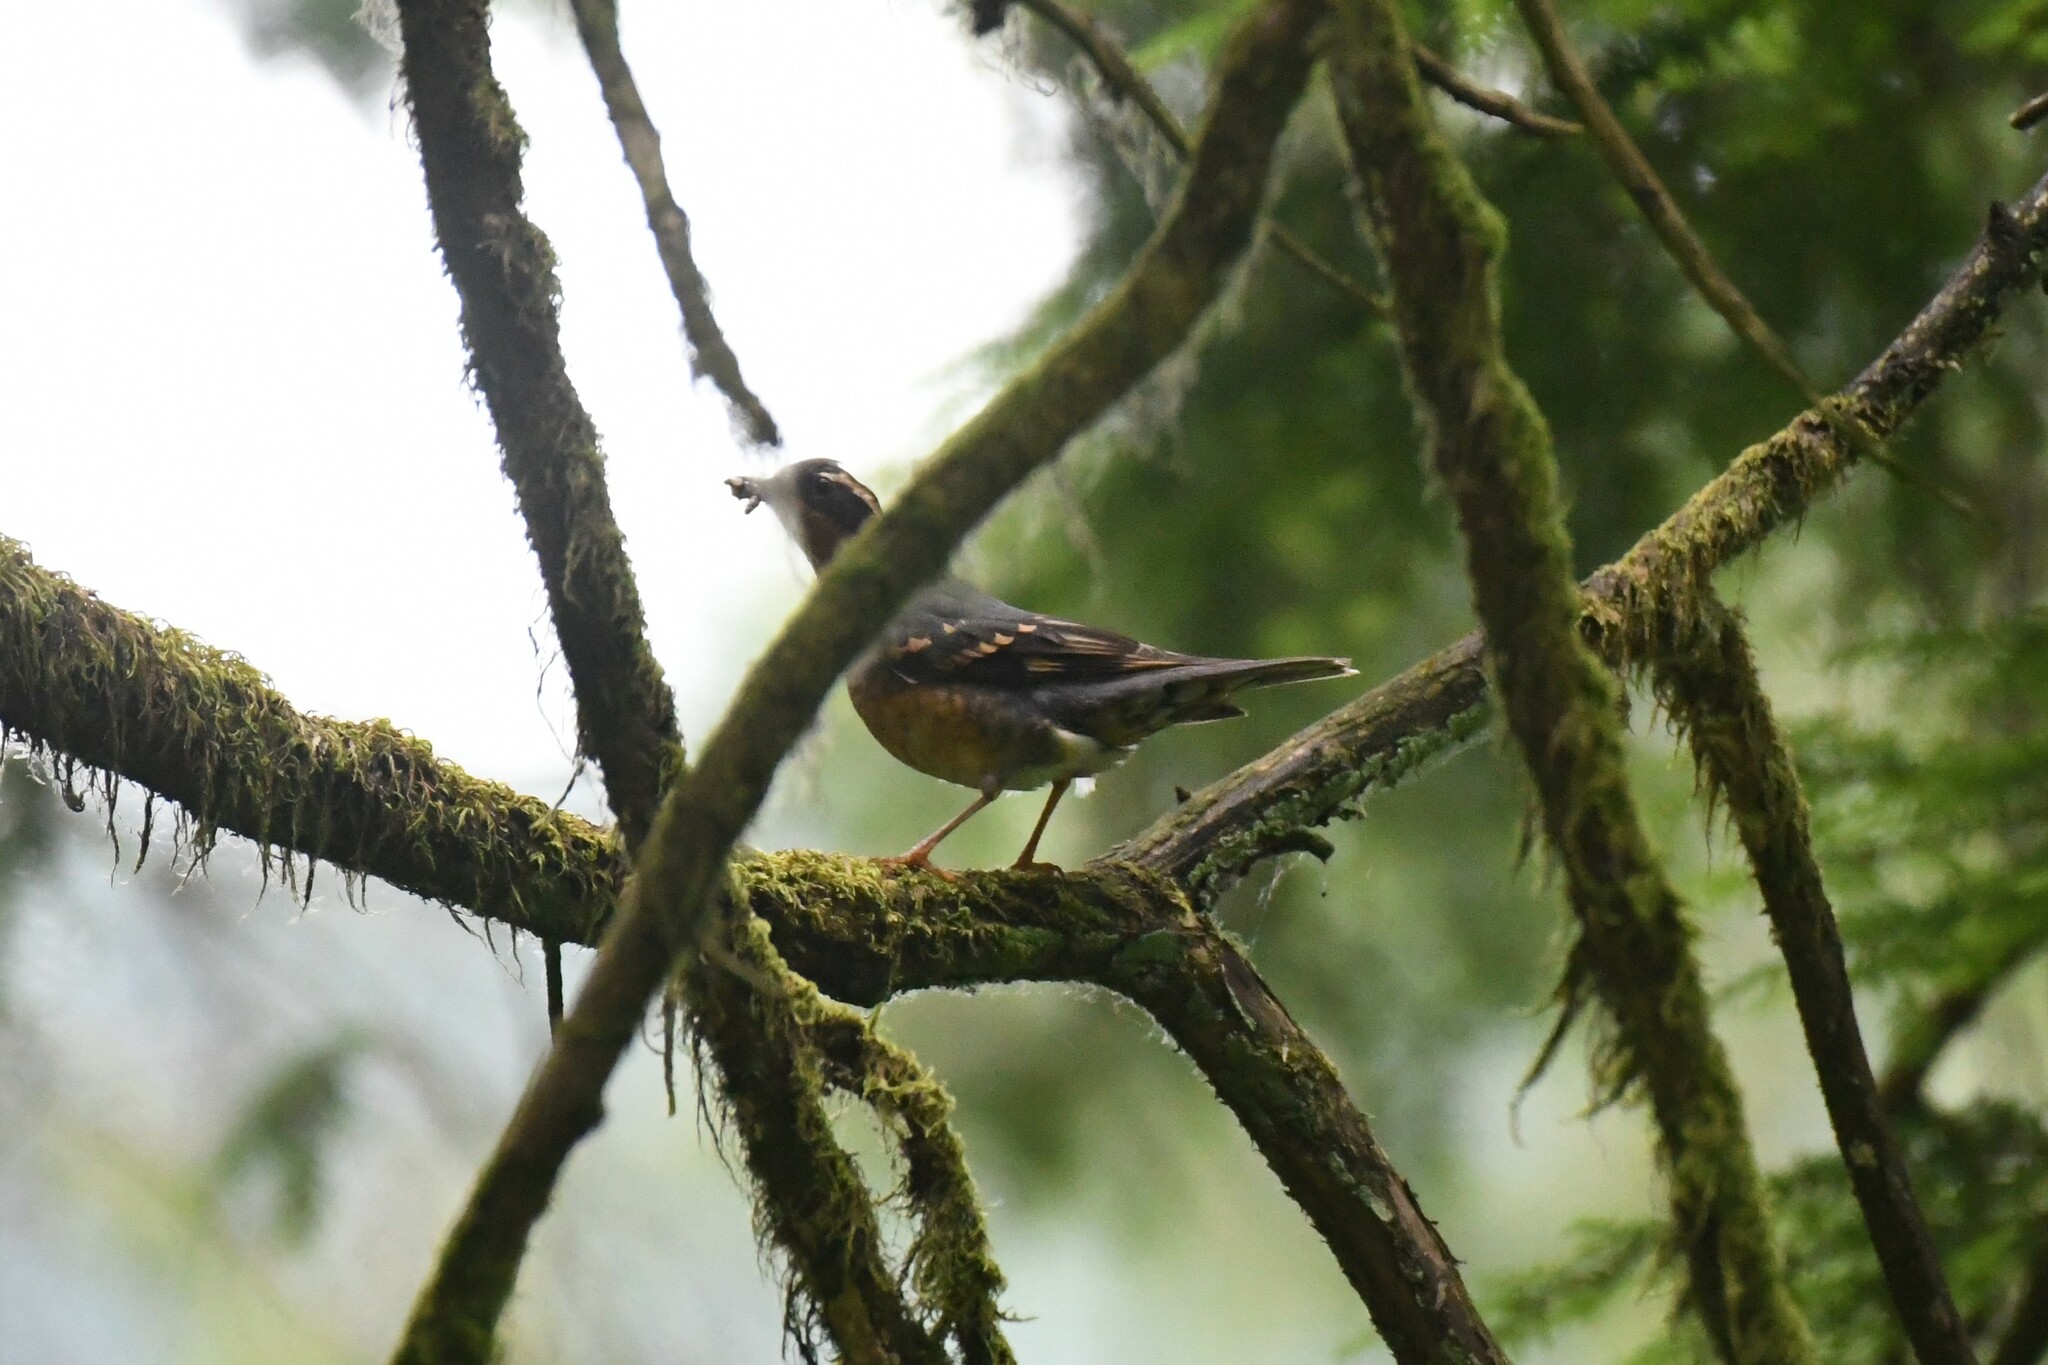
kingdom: Animalia
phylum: Chordata
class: Aves
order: Passeriformes
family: Turdidae
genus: Ixoreus
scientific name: Ixoreus naevius
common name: Varied thrush
